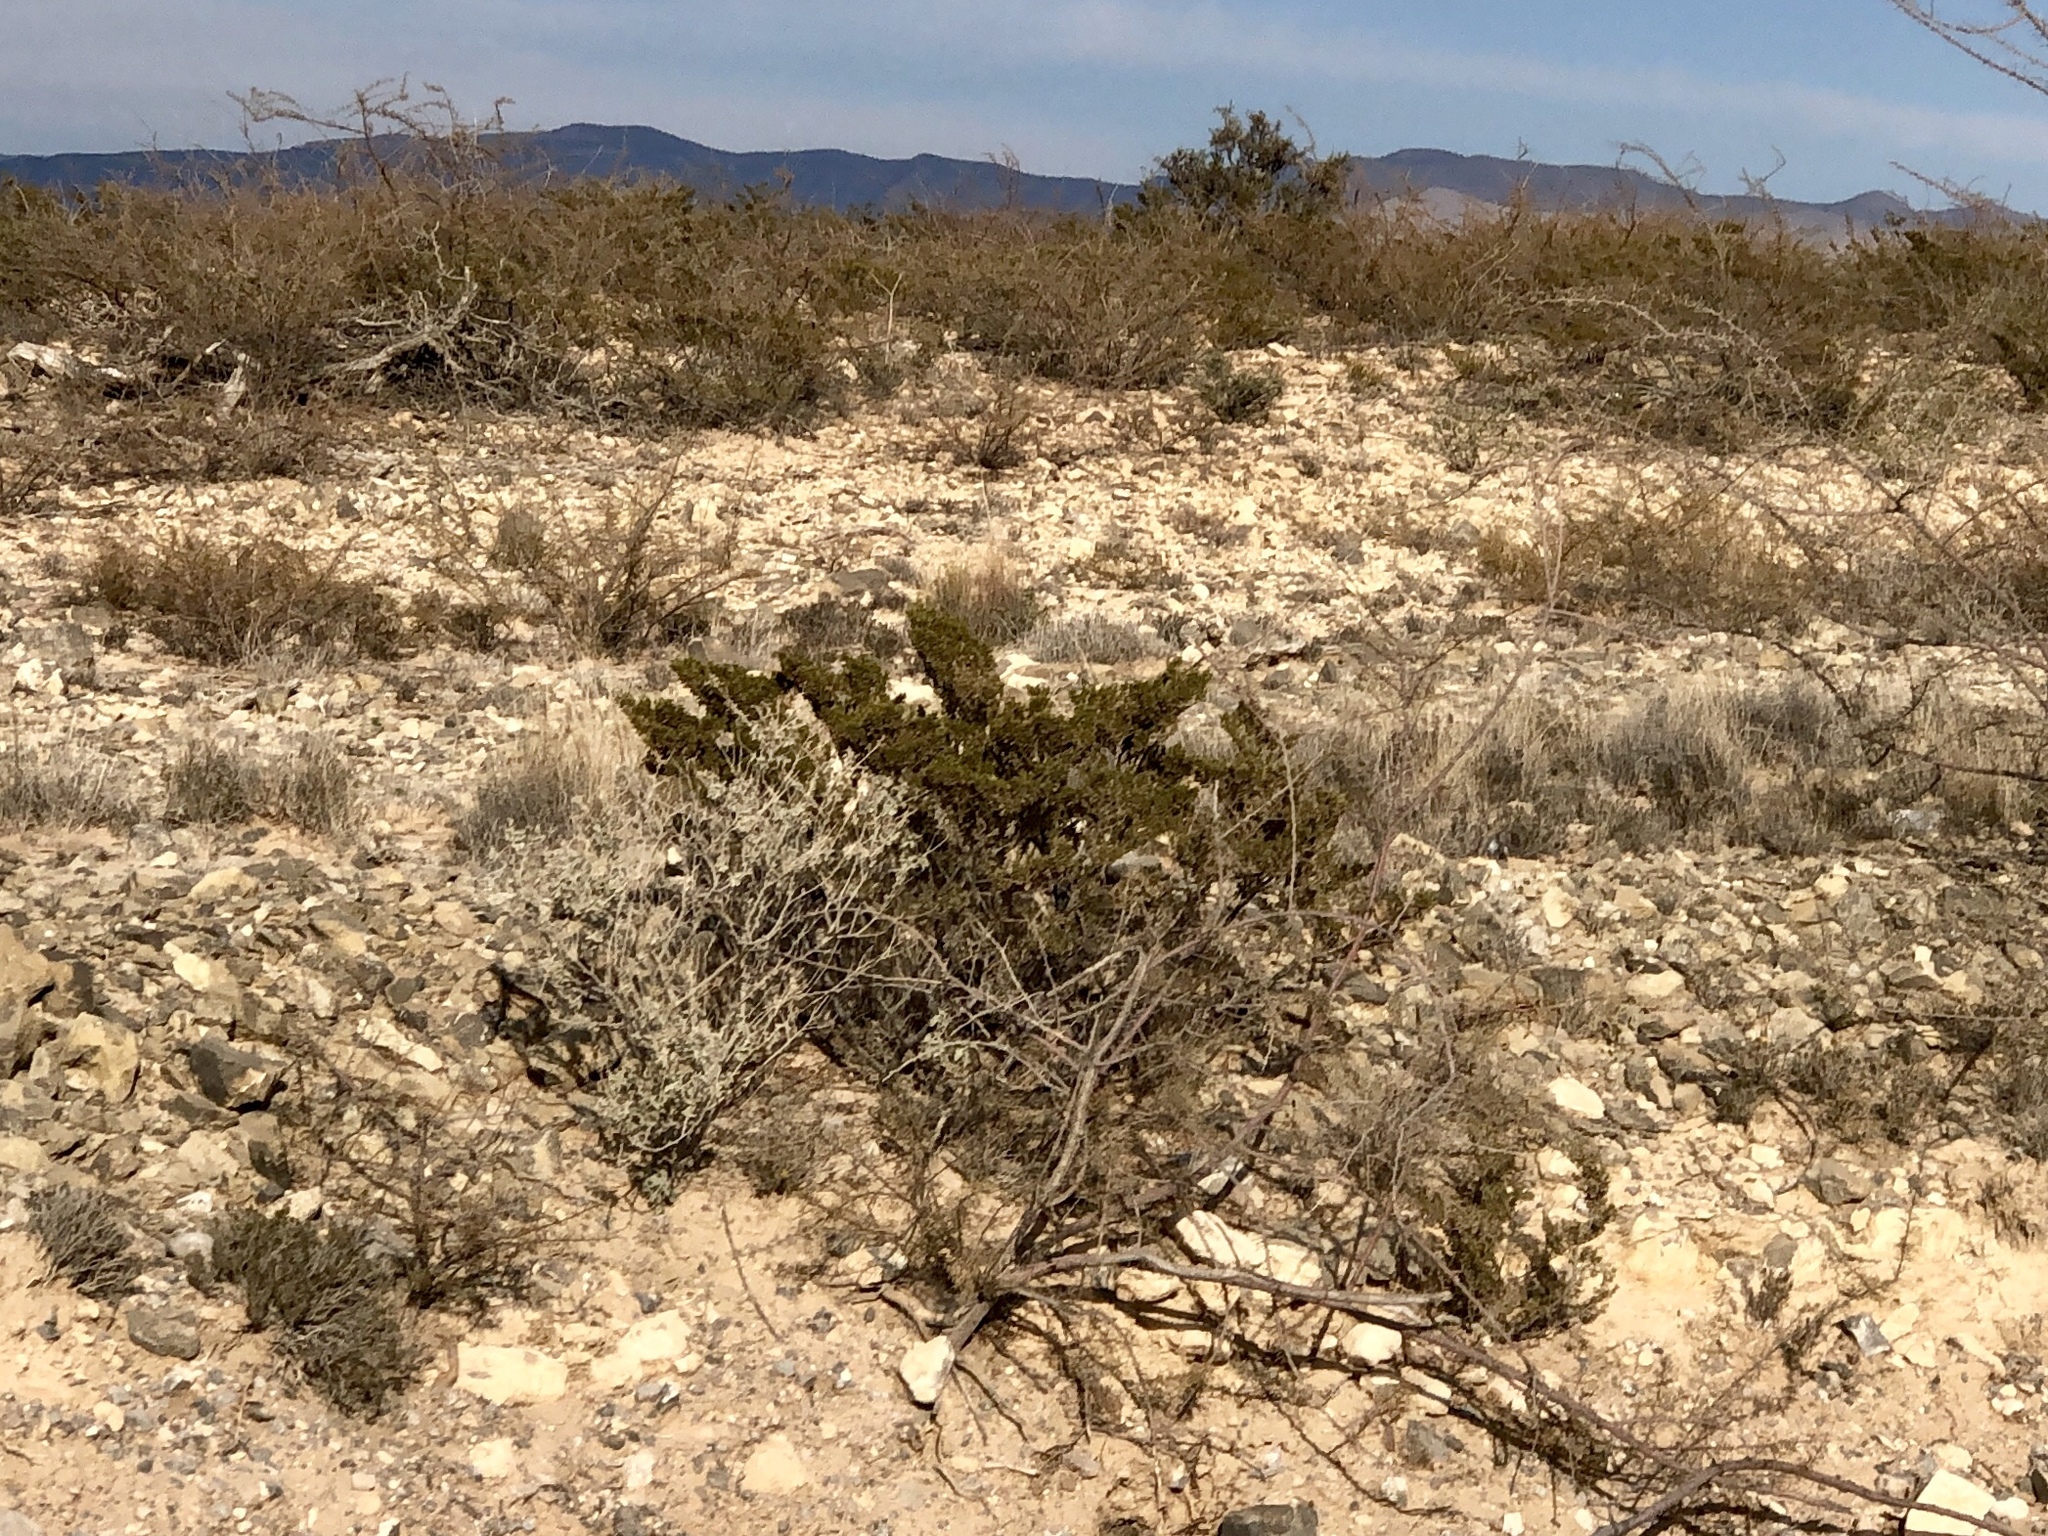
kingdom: Plantae
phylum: Tracheophyta
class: Magnoliopsida
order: Zygophyllales
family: Zygophyllaceae
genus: Larrea
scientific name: Larrea tridentata
